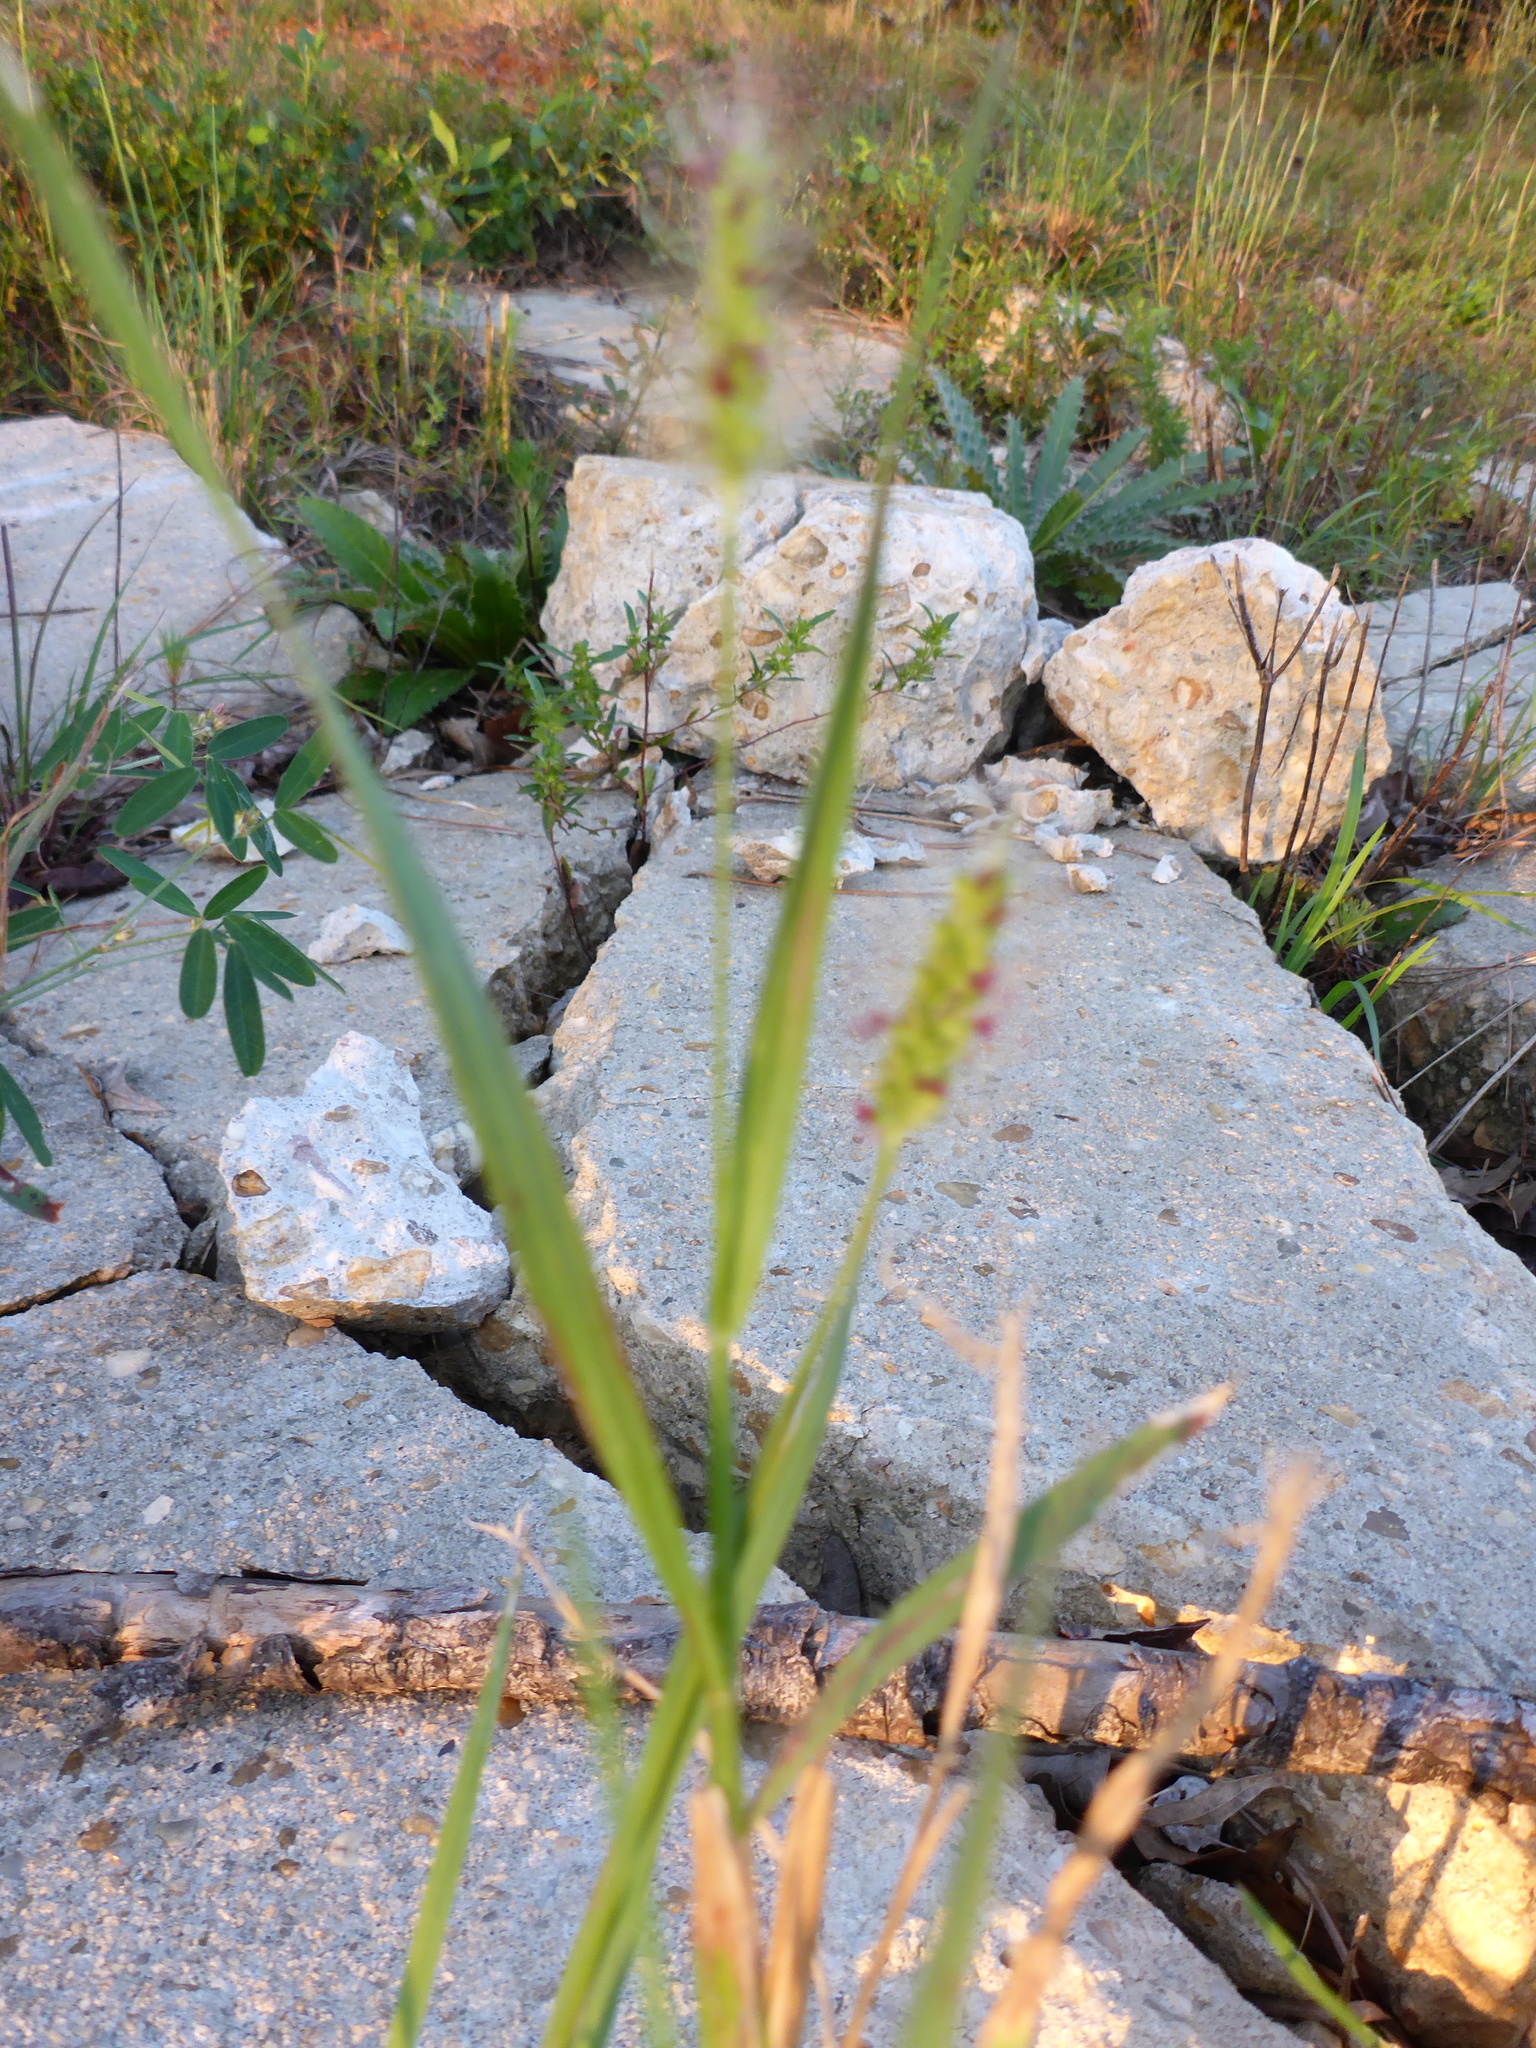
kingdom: Plantae
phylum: Tracheophyta
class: Liliopsida
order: Poales
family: Poaceae
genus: Setaria
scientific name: Setaria pumila
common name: Yellow bristle-grass
